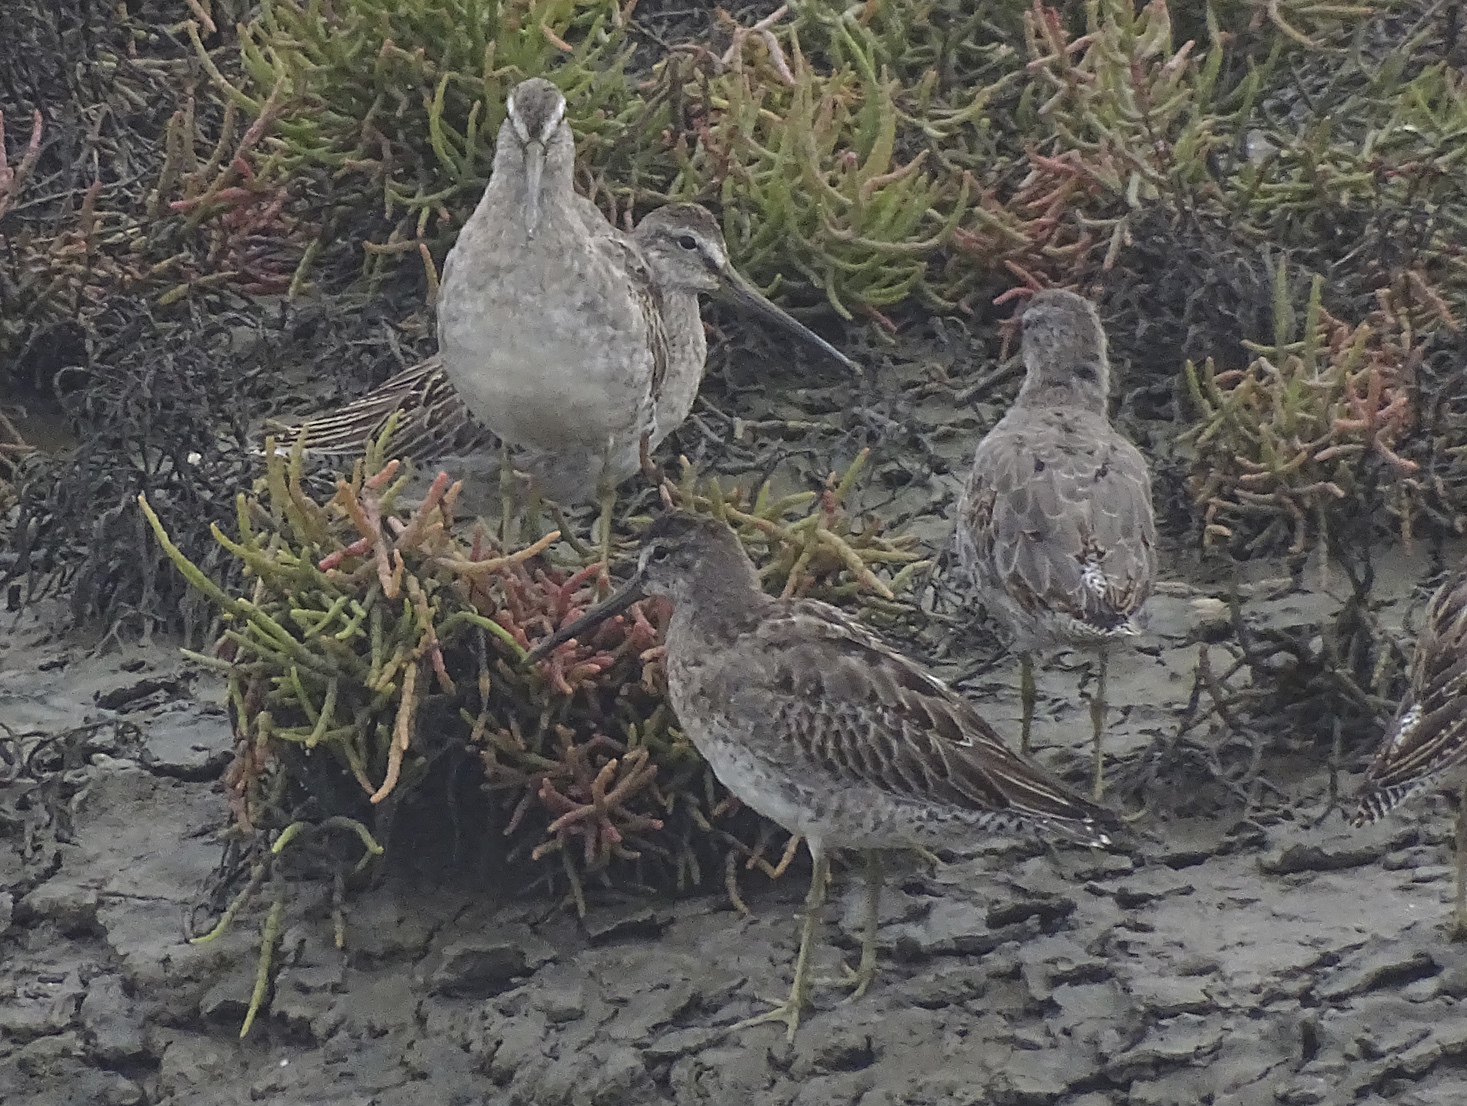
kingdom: Animalia
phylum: Chordata
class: Aves
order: Charadriiformes
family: Scolopacidae
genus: Limnodromus
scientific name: Limnodromus griseus
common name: Short-billed dowitcher
